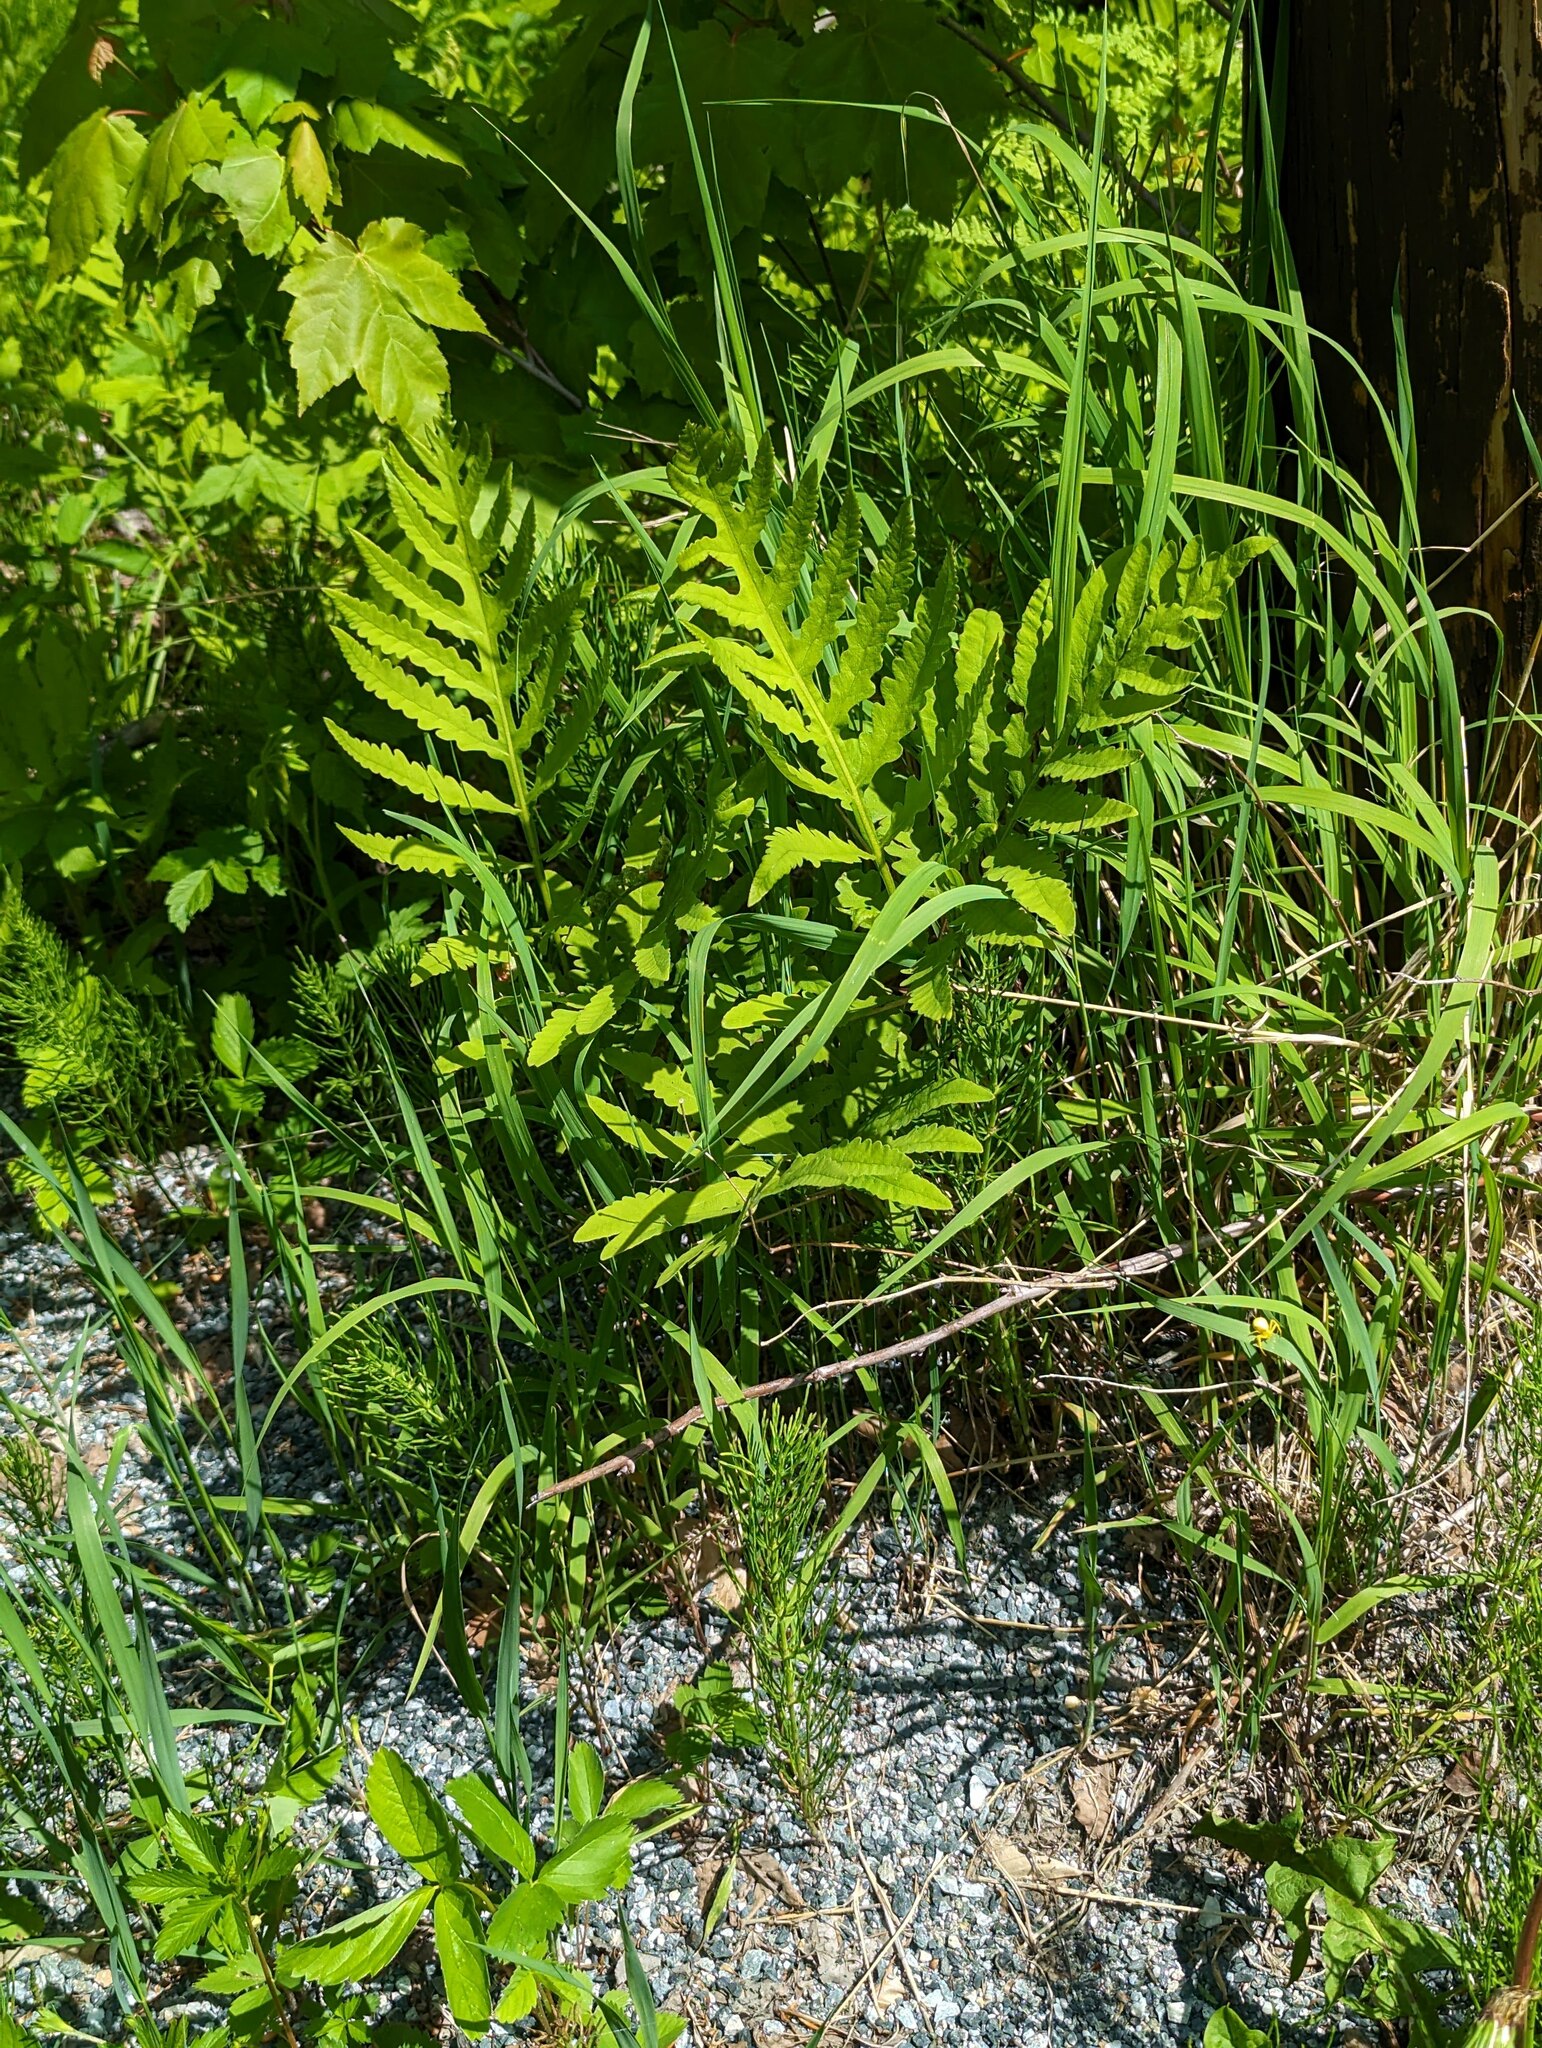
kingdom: Plantae
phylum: Tracheophyta
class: Polypodiopsida
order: Polypodiales
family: Onocleaceae
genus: Onoclea
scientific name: Onoclea sensibilis
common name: Sensitive fern
